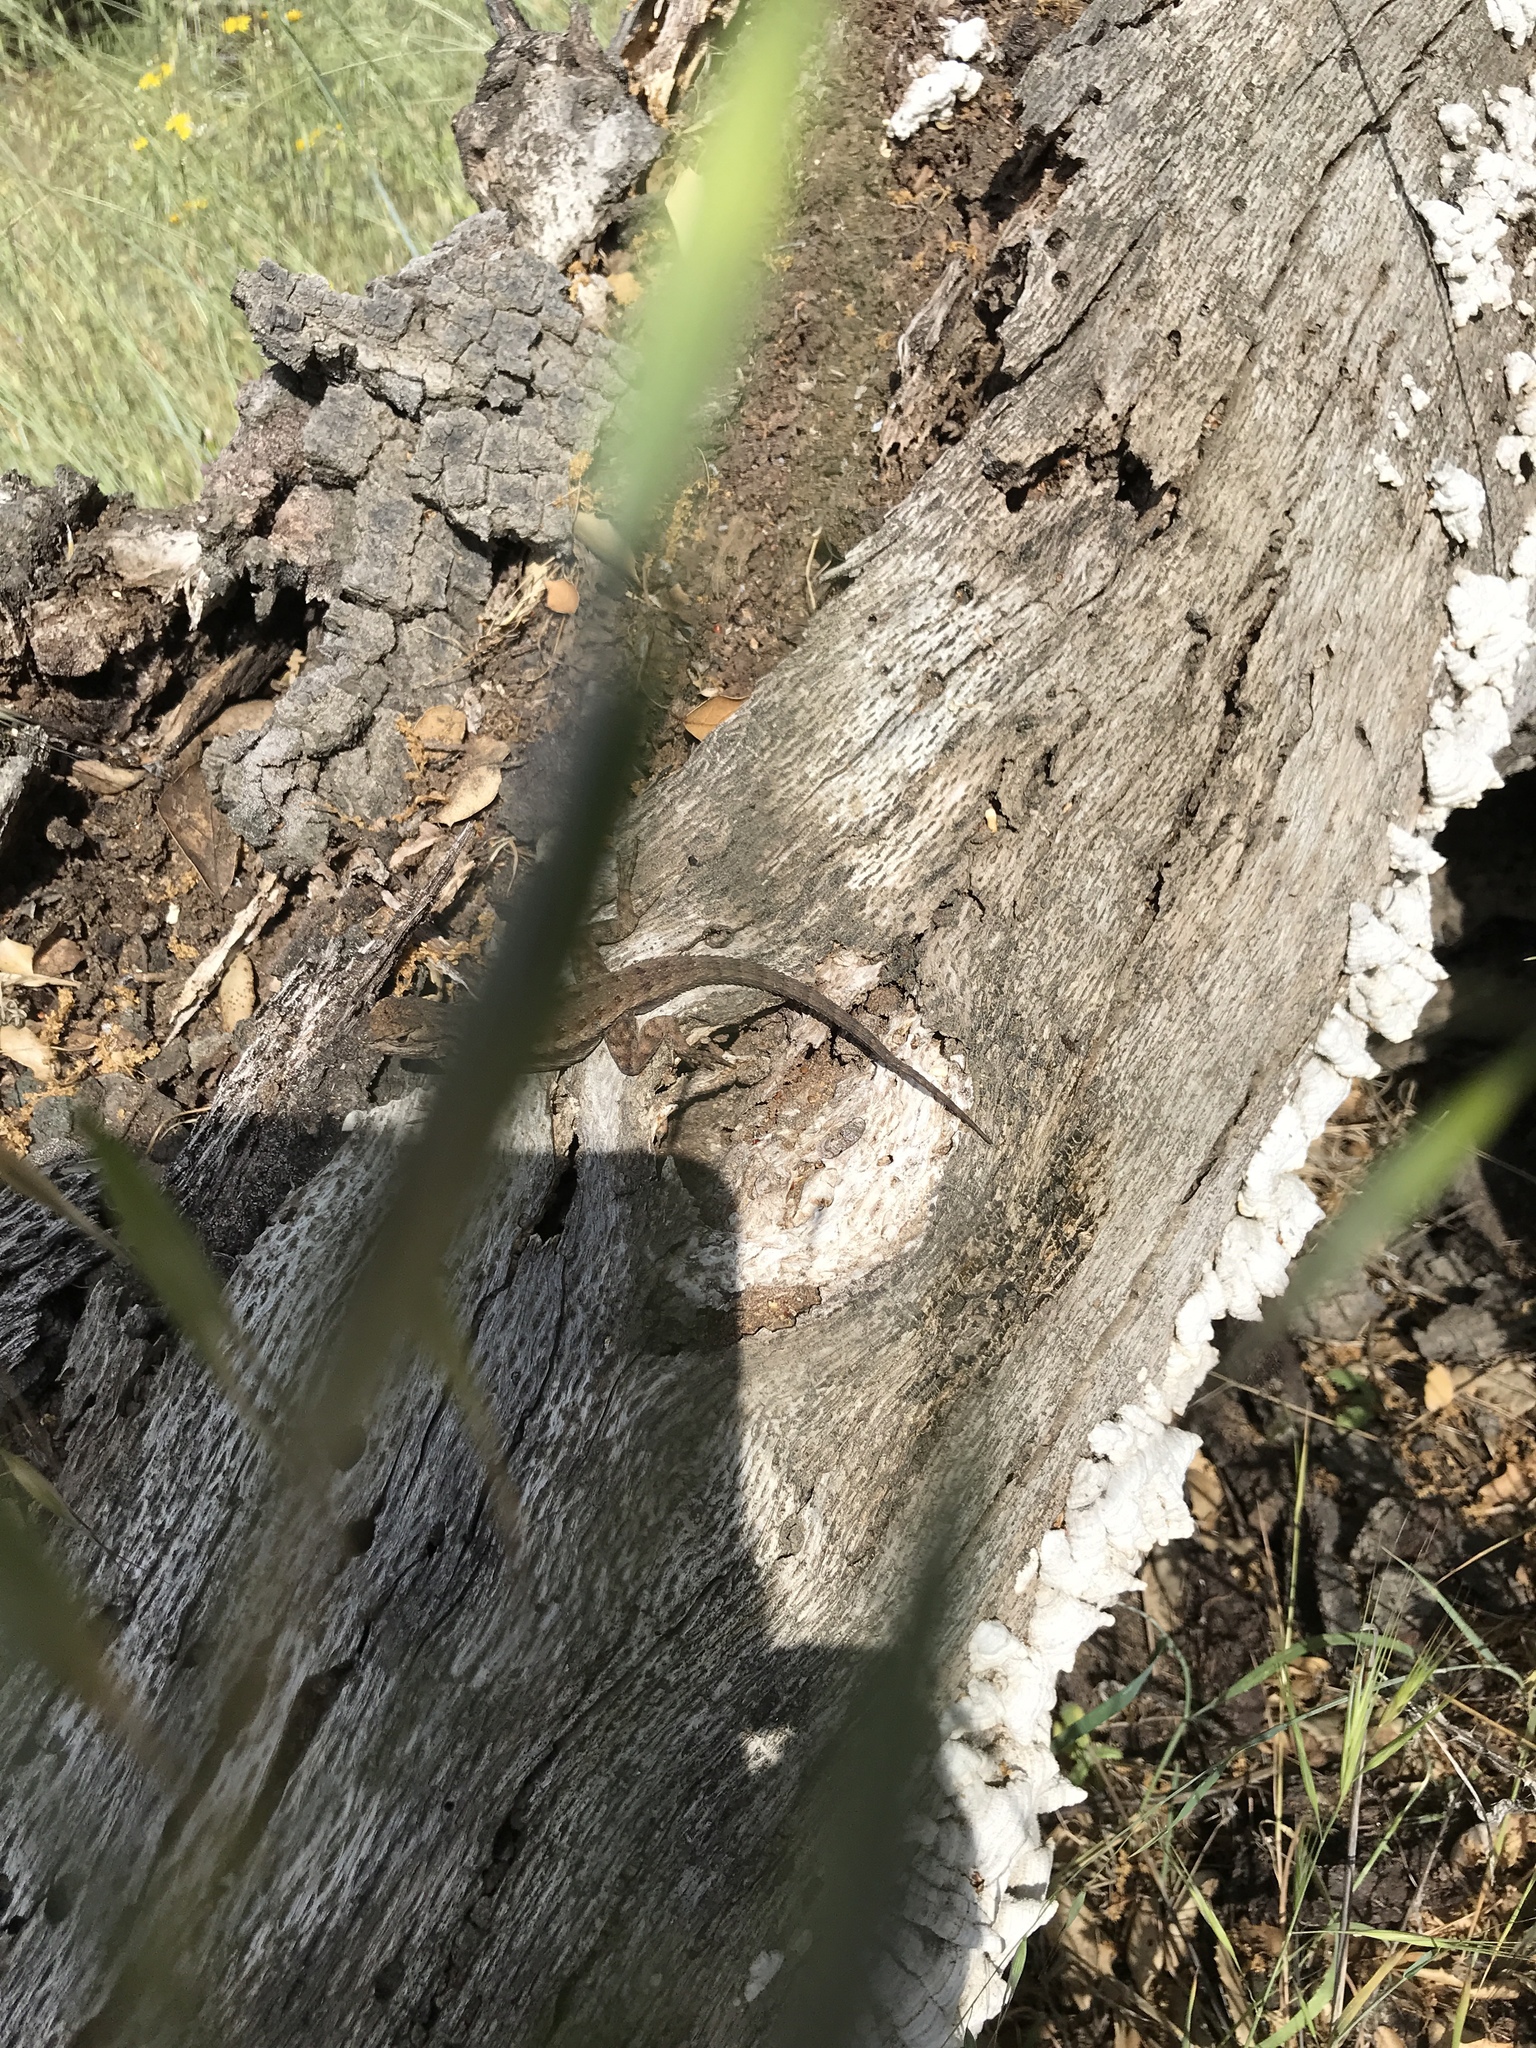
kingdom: Animalia
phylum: Chordata
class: Squamata
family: Phrynosomatidae
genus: Sceloporus
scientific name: Sceloporus occidentalis
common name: Western fence lizard
